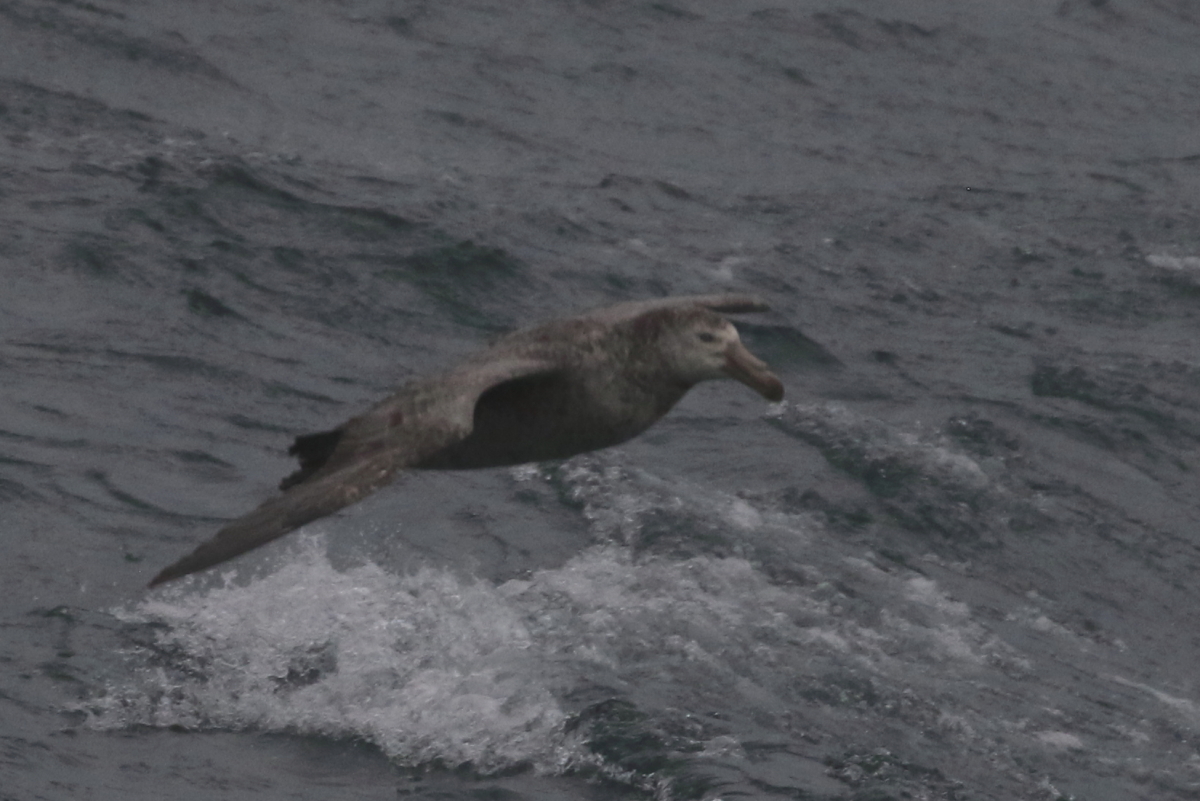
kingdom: Animalia
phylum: Chordata
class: Aves
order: Procellariiformes
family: Procellariidae
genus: Macronectes
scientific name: Macronectes halli
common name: Northern giant petrel
